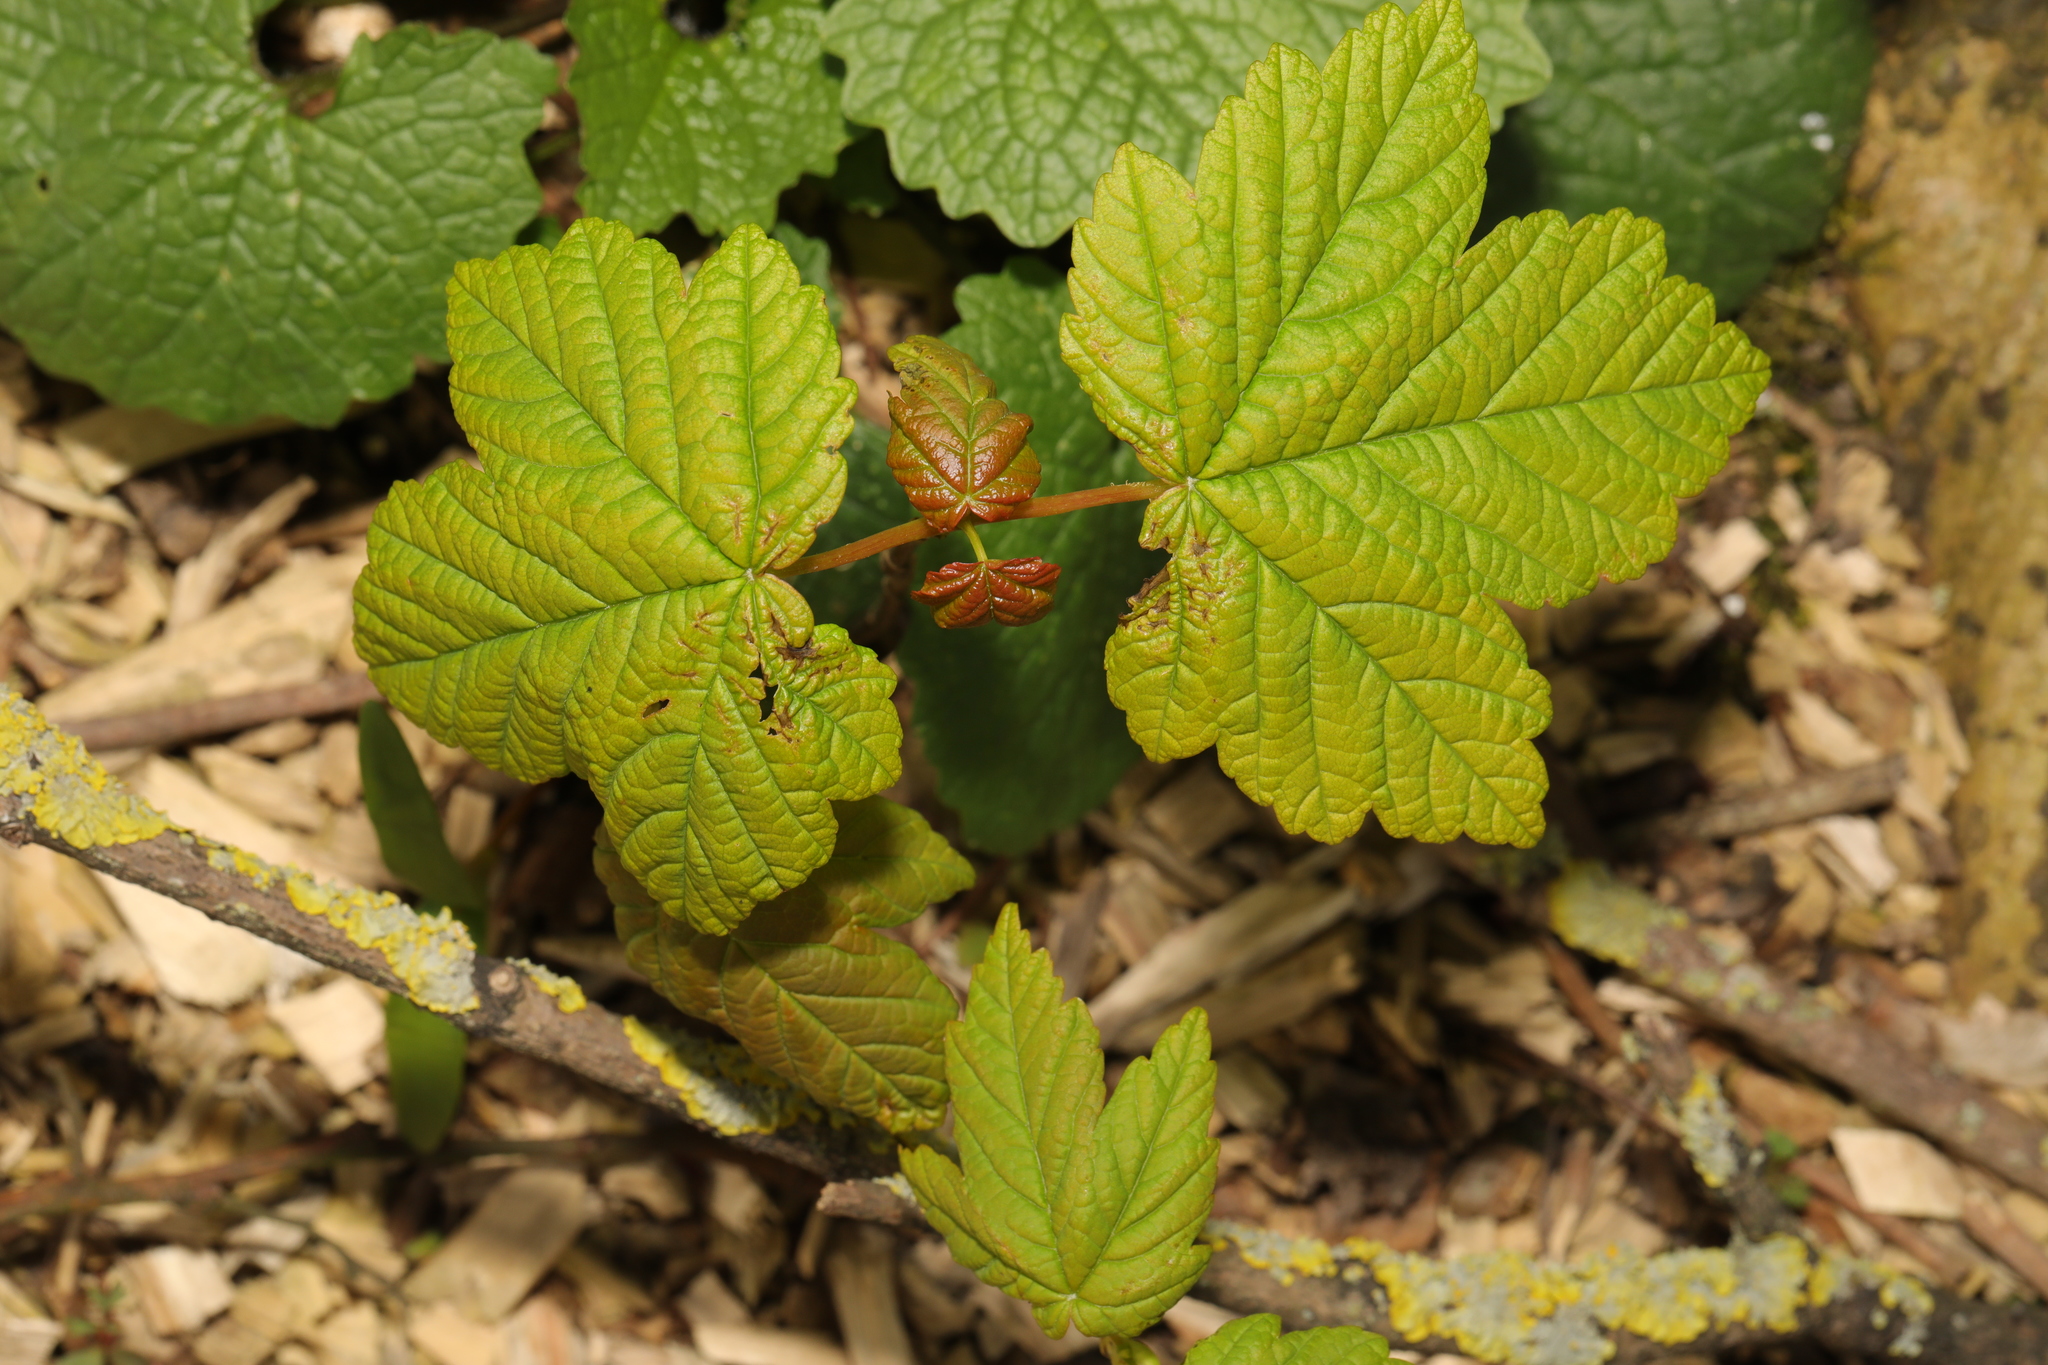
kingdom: Plantae
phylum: Tracheophyta
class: Magnoliopsida
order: Sapindales
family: Sapindaceae
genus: Acer
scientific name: Acer pseudoplatanus
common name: Sycamore
